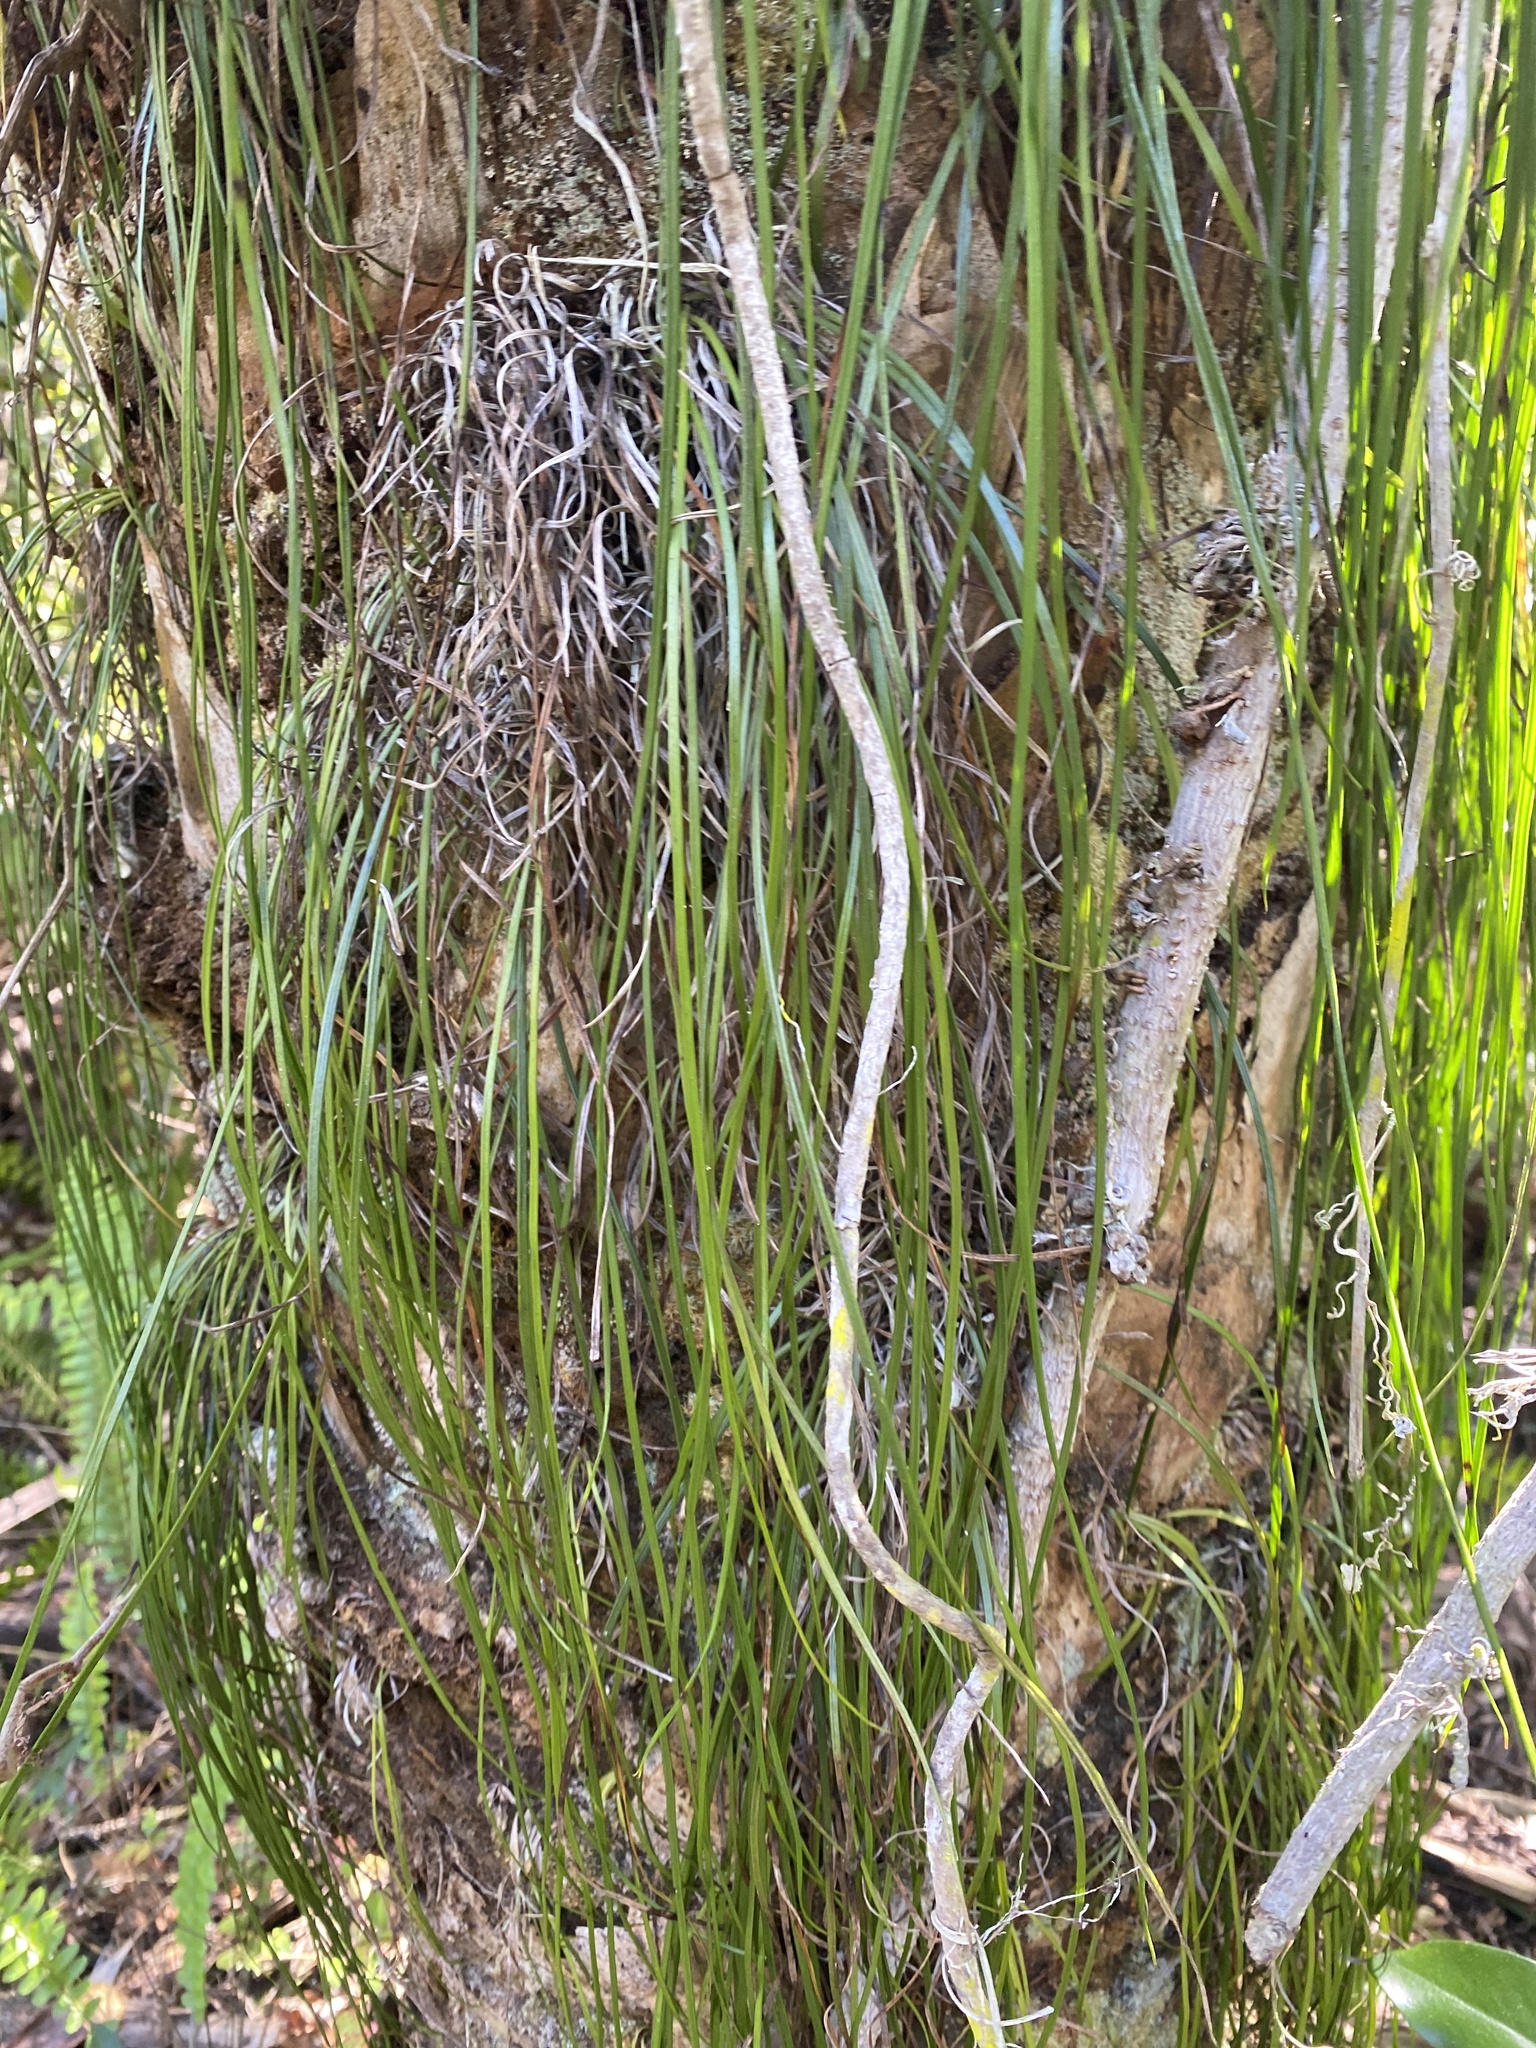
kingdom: Plantae
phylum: Tracheophyta
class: Polypodiopsida
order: Polypodiales
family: Pteridaceae
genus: Vittaria
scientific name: Vittaria lineata
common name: Shoestring fern
